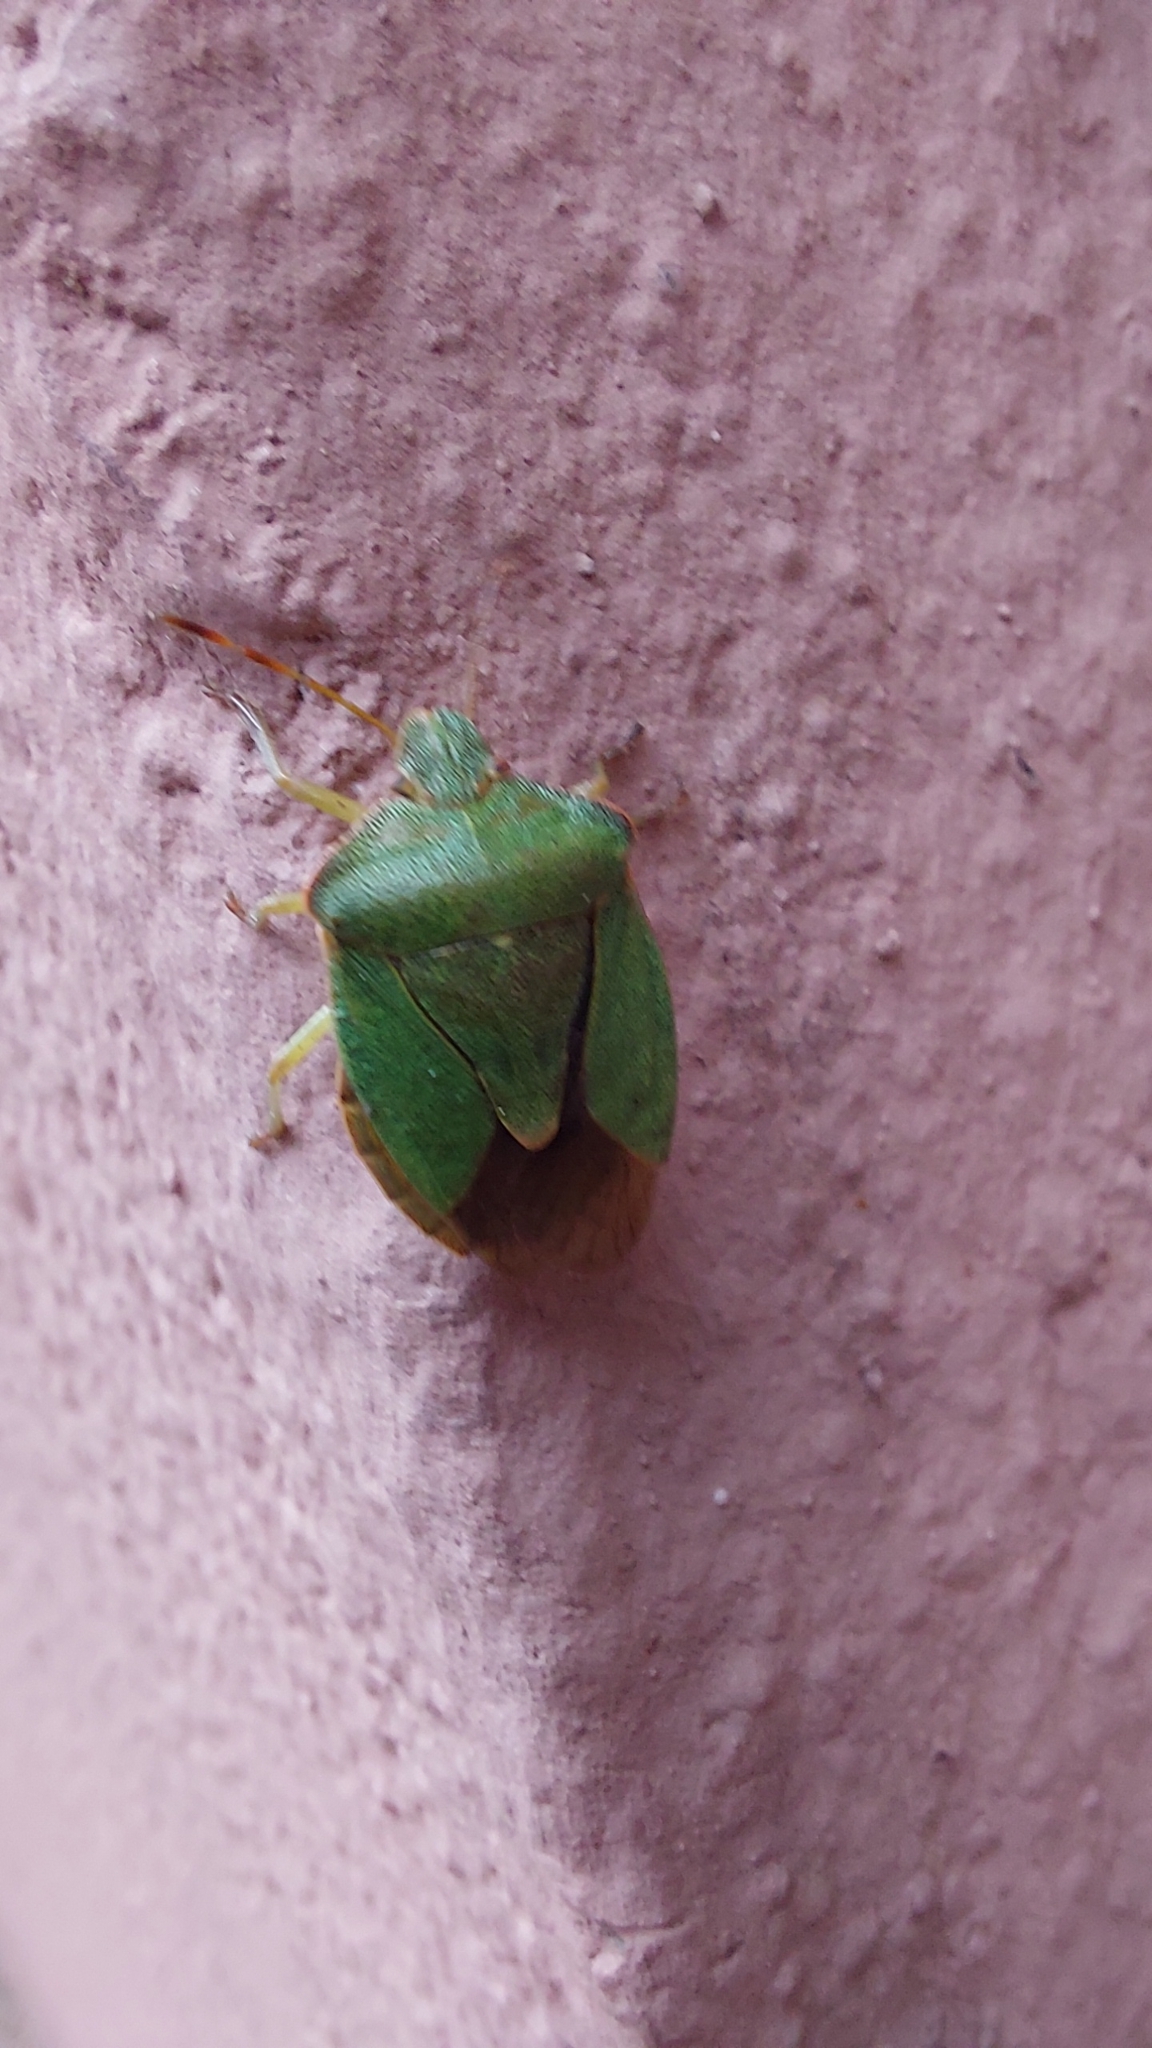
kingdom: Animalia
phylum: Arthropoda
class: Insecta
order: Hemiptera
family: Pentatomidae
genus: Palomena
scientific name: Palomena prasina
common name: Green shieldbug
